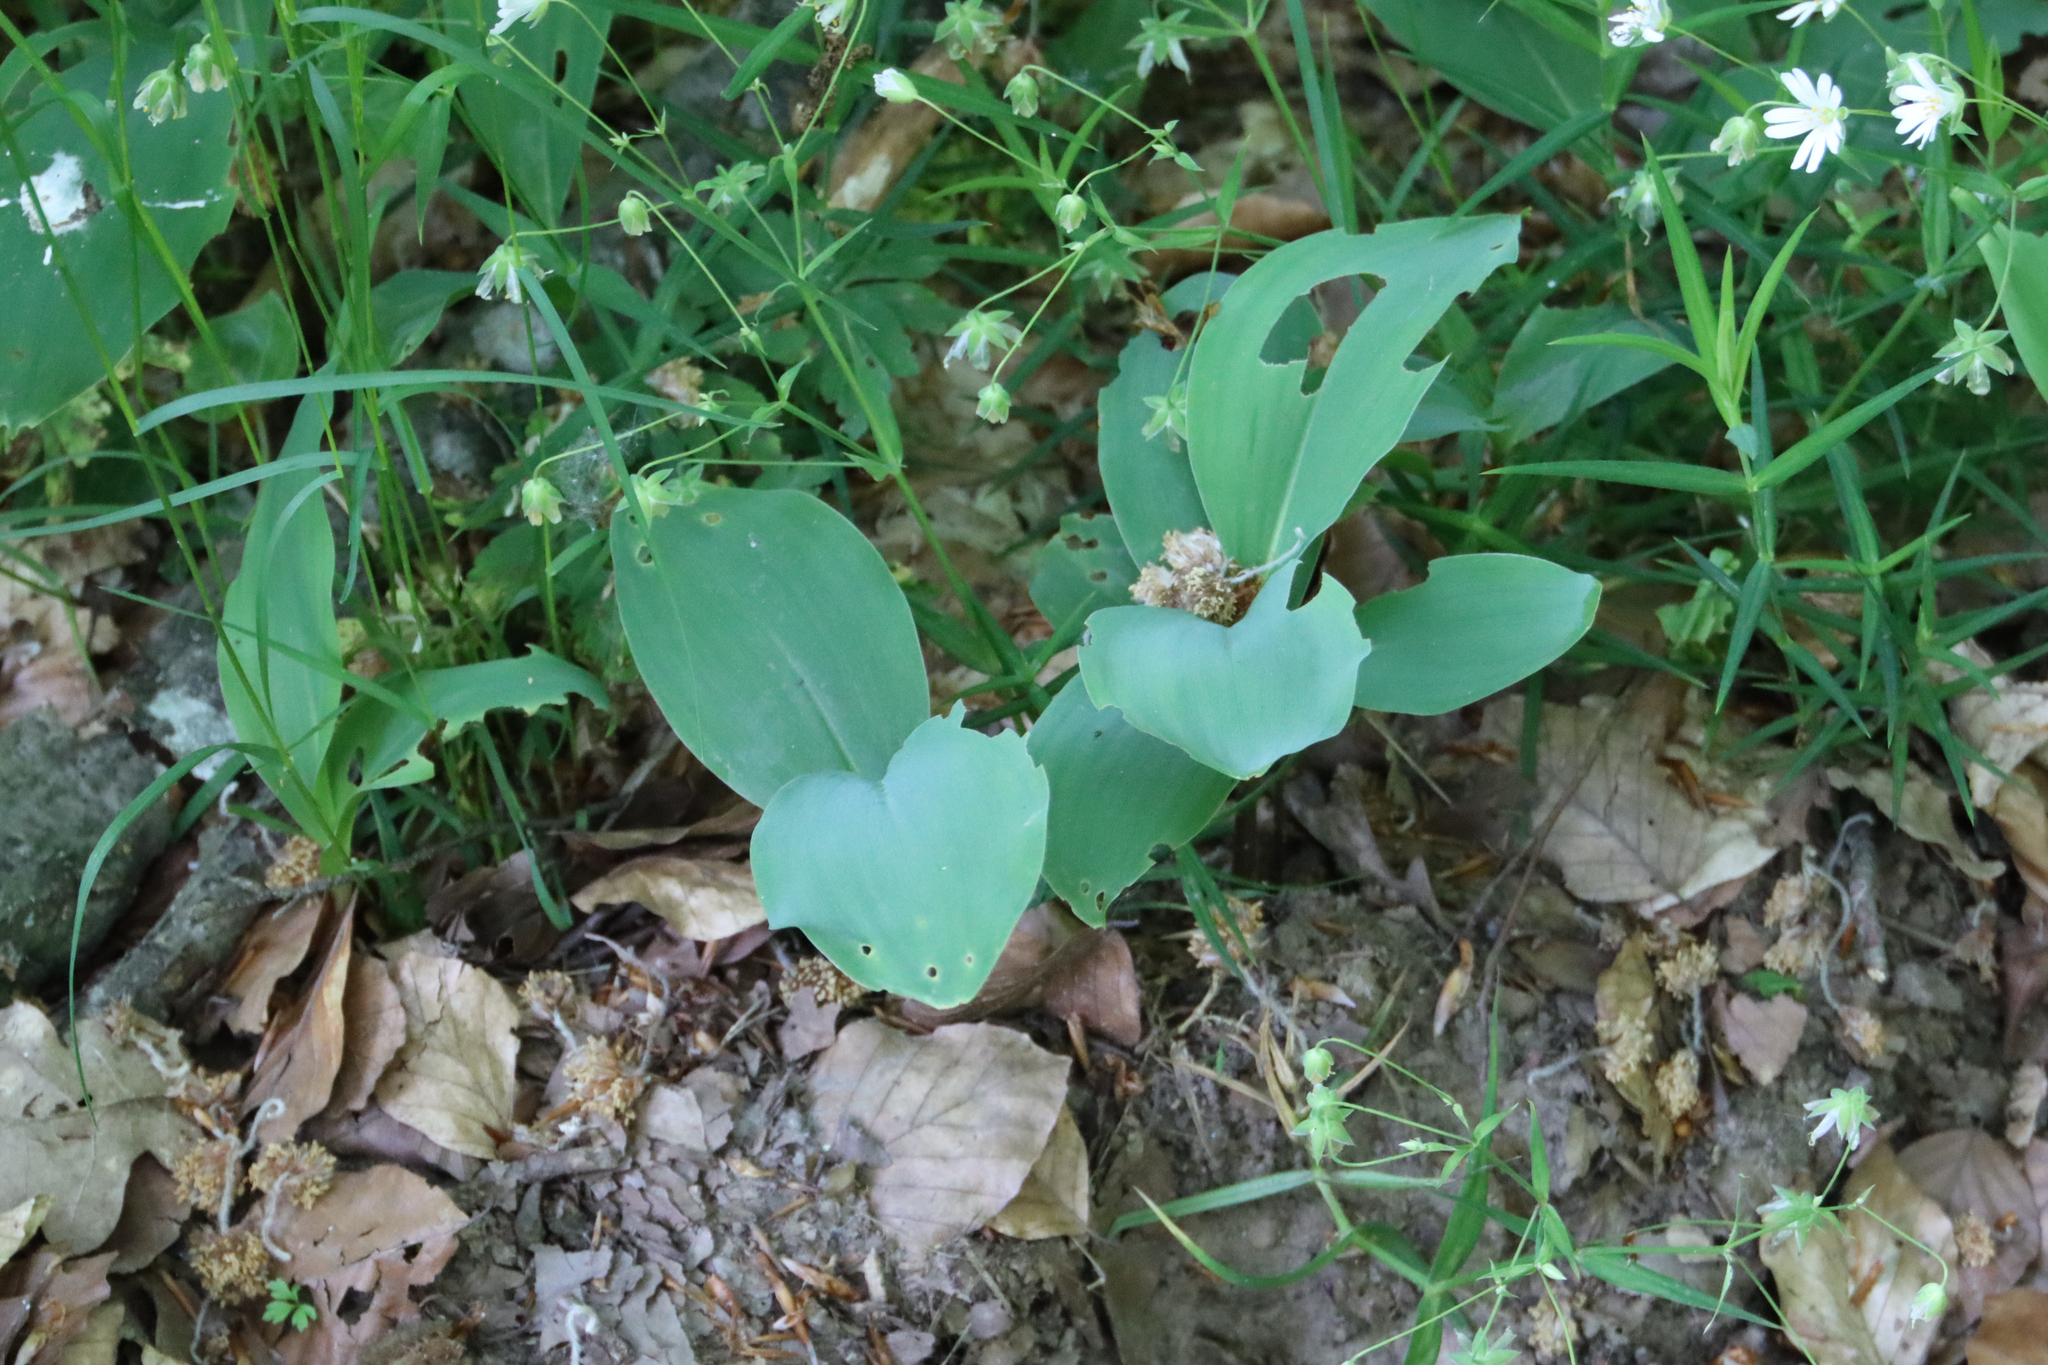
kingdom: Plantae
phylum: Tracheophyta
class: Liliopsida
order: Asparagales
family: Asparagaceae
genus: Convallaria
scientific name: Convallaria majalis
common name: Lily-of-the-valley
